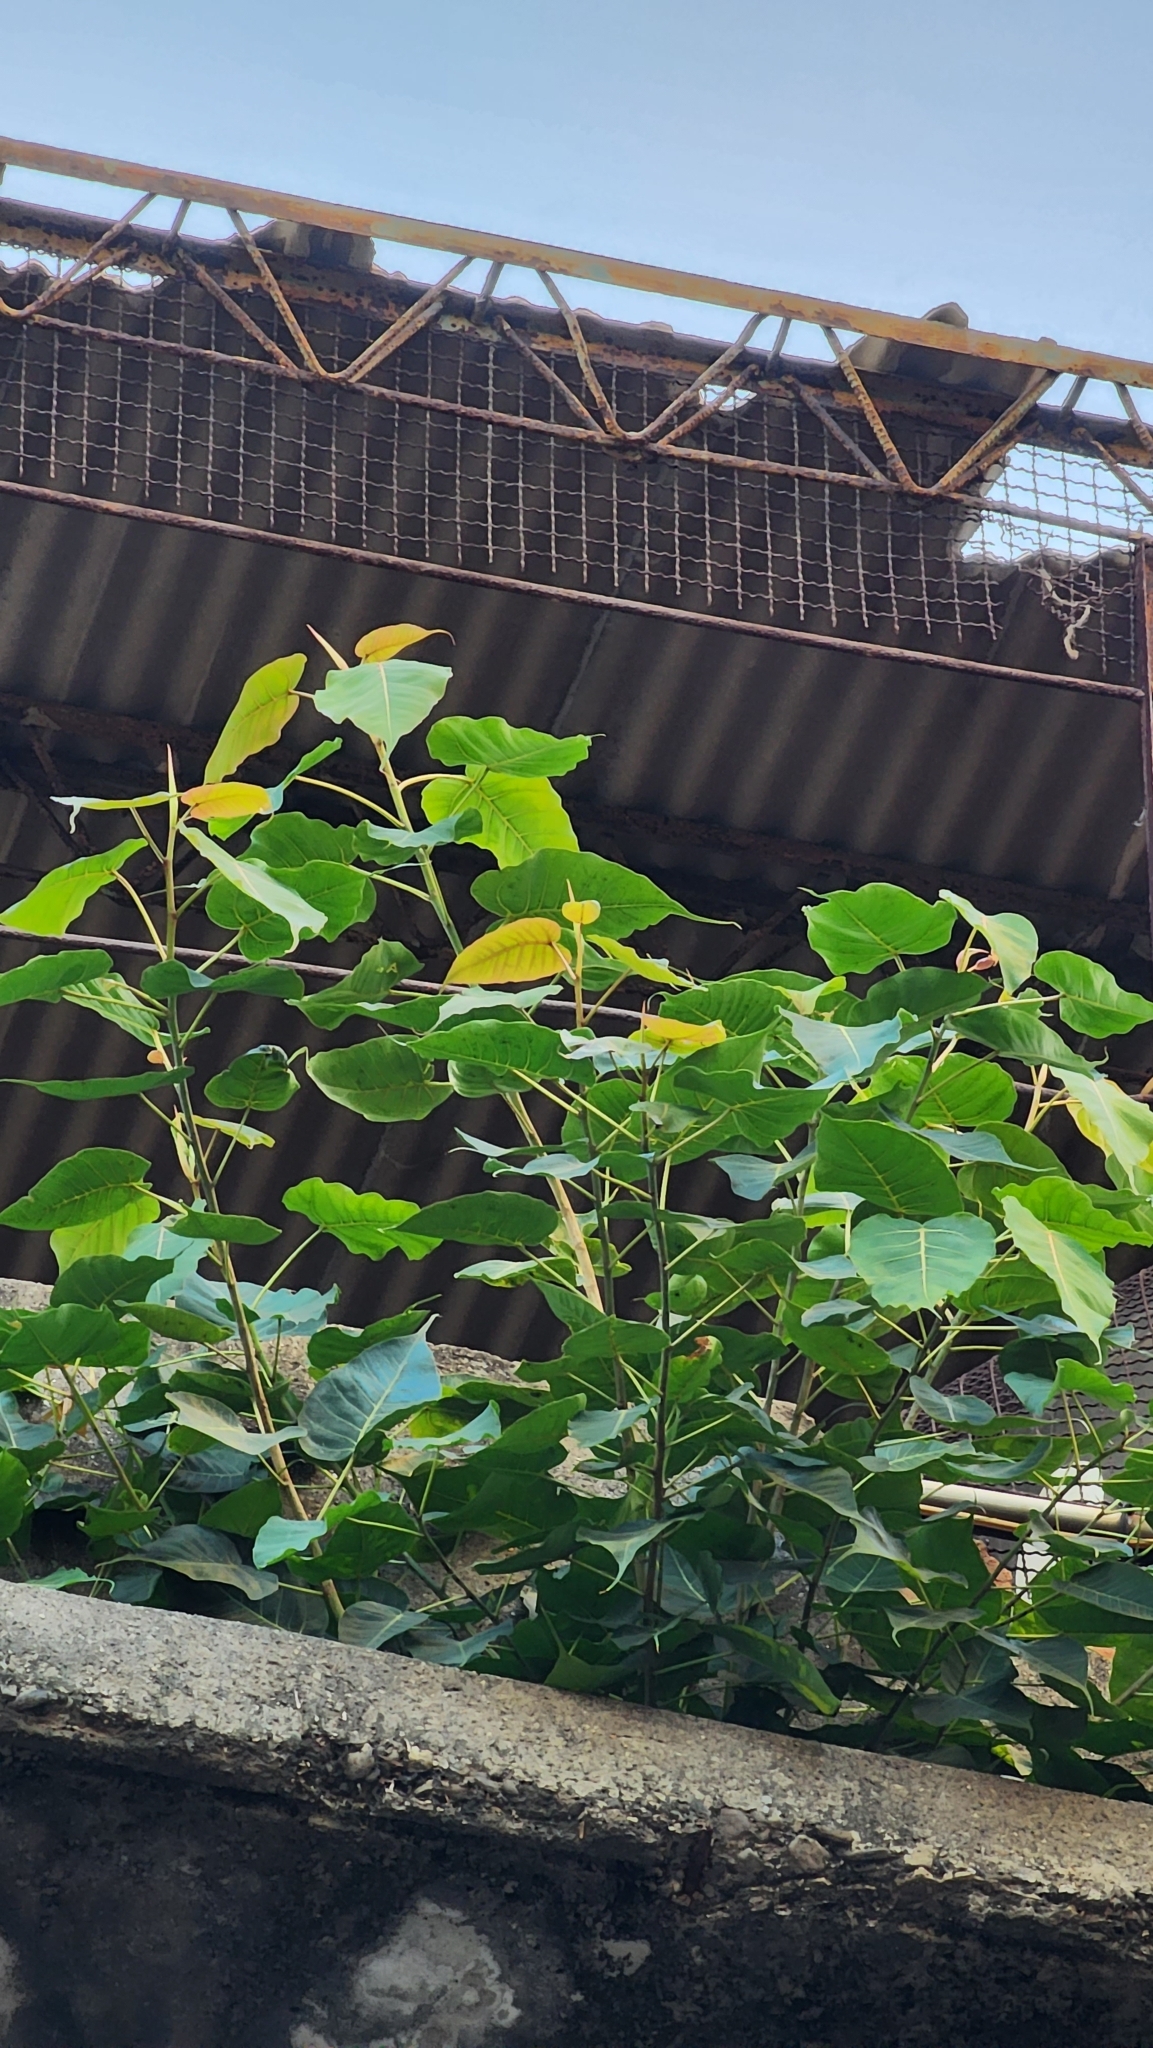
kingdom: Plantae
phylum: Tracheophyta
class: Magnoliopsida
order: Rosales
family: Moraceae
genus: Ficus
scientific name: Ficus religiosa
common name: Bodhi tree
